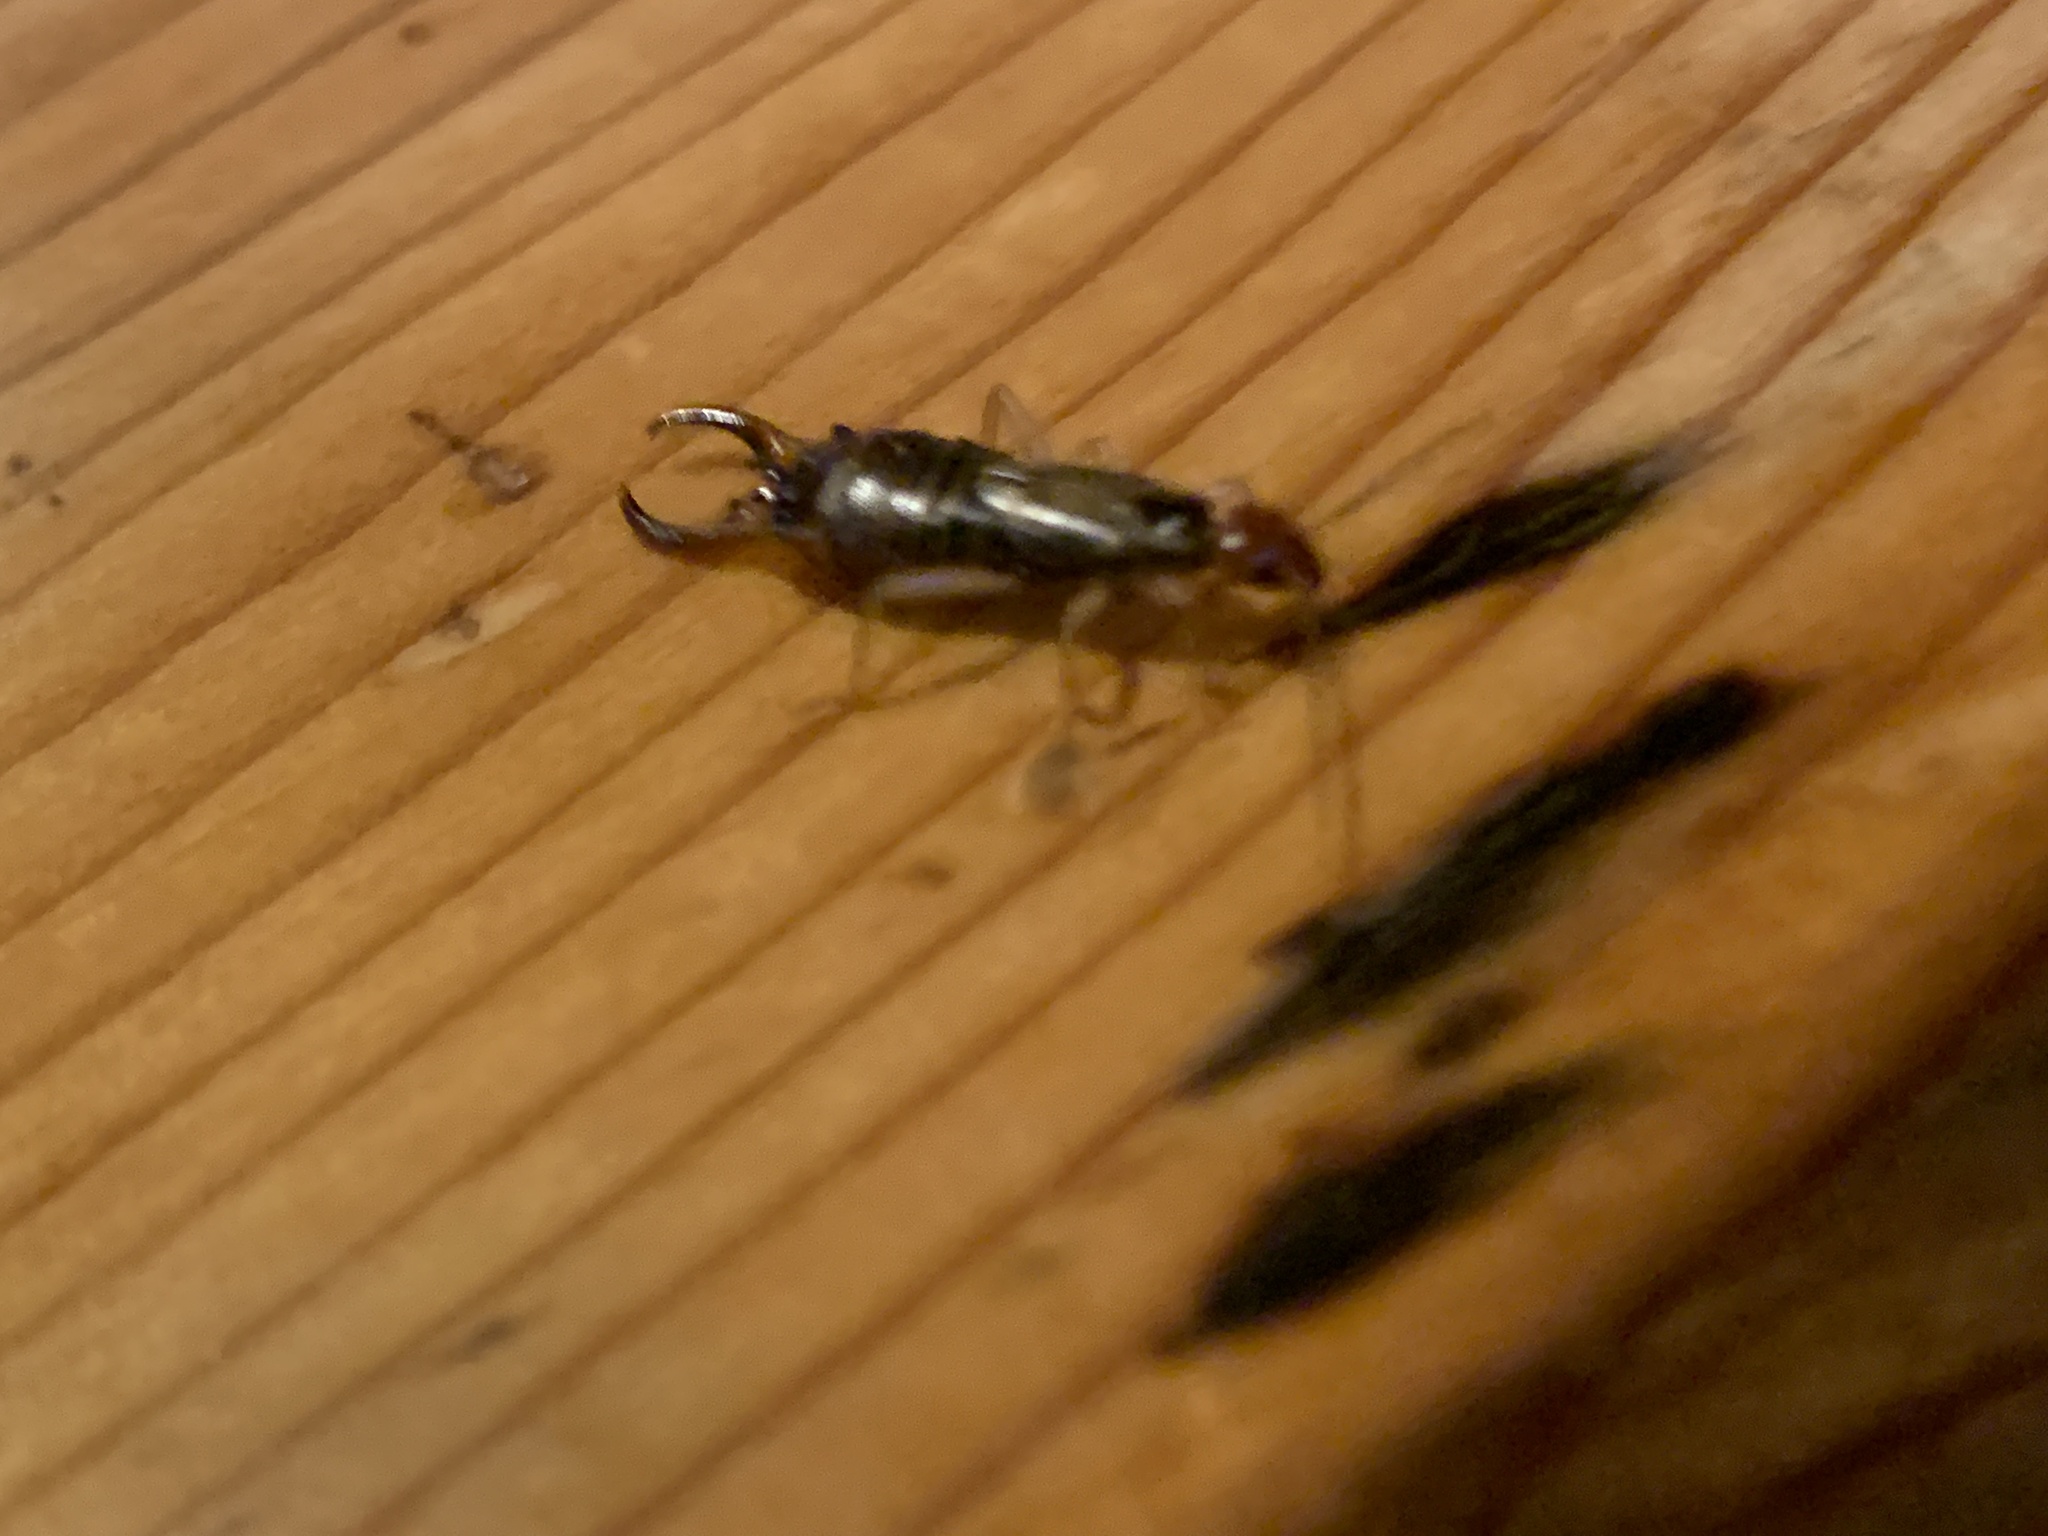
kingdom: Animalia
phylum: Arthropoda
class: Insecta
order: Dermaptera
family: Forficulidae
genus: Forficula
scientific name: Forficula
